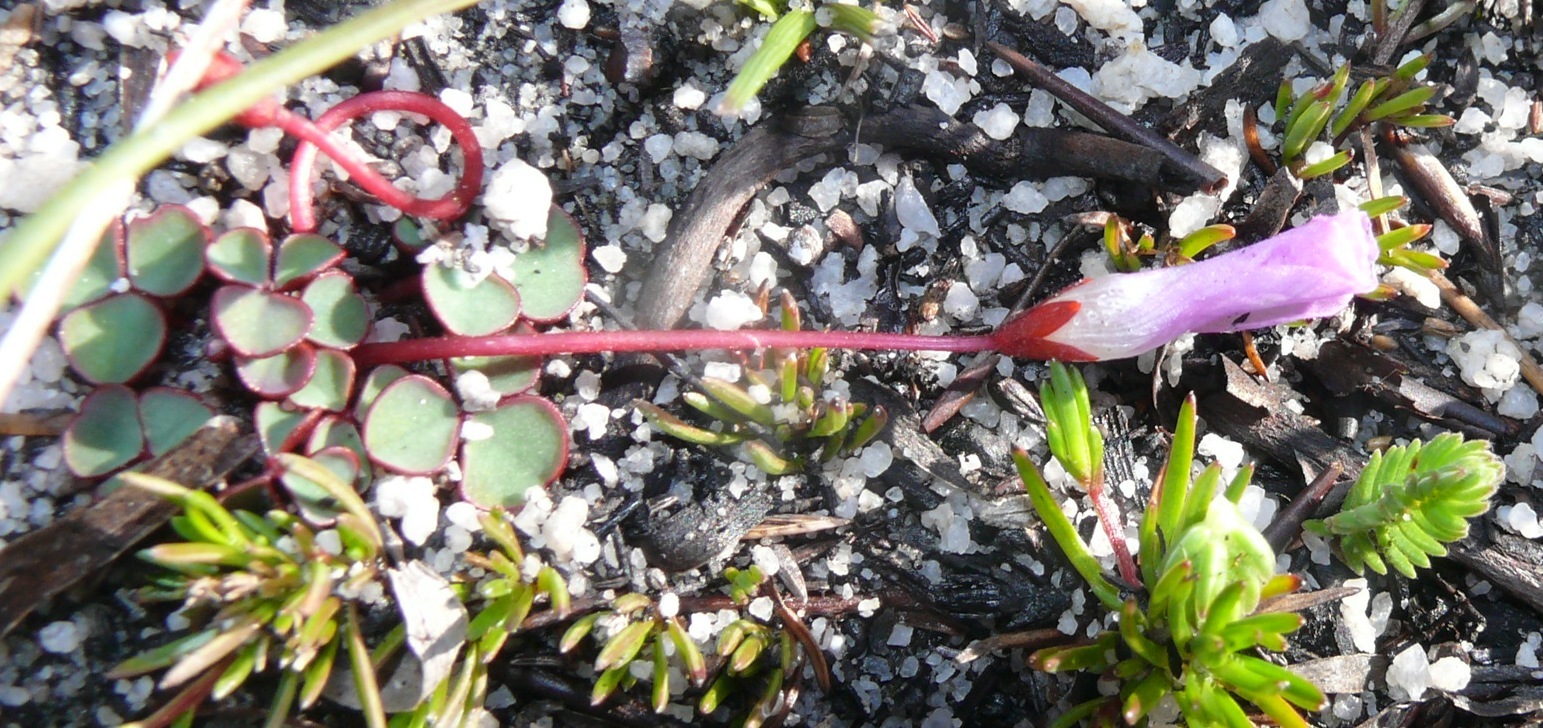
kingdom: Plantae
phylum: Tracheophyta
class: Magnoliopsida
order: Oxalidales
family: Oxalidaceae
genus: Oxalis
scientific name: Oxalis commutata
